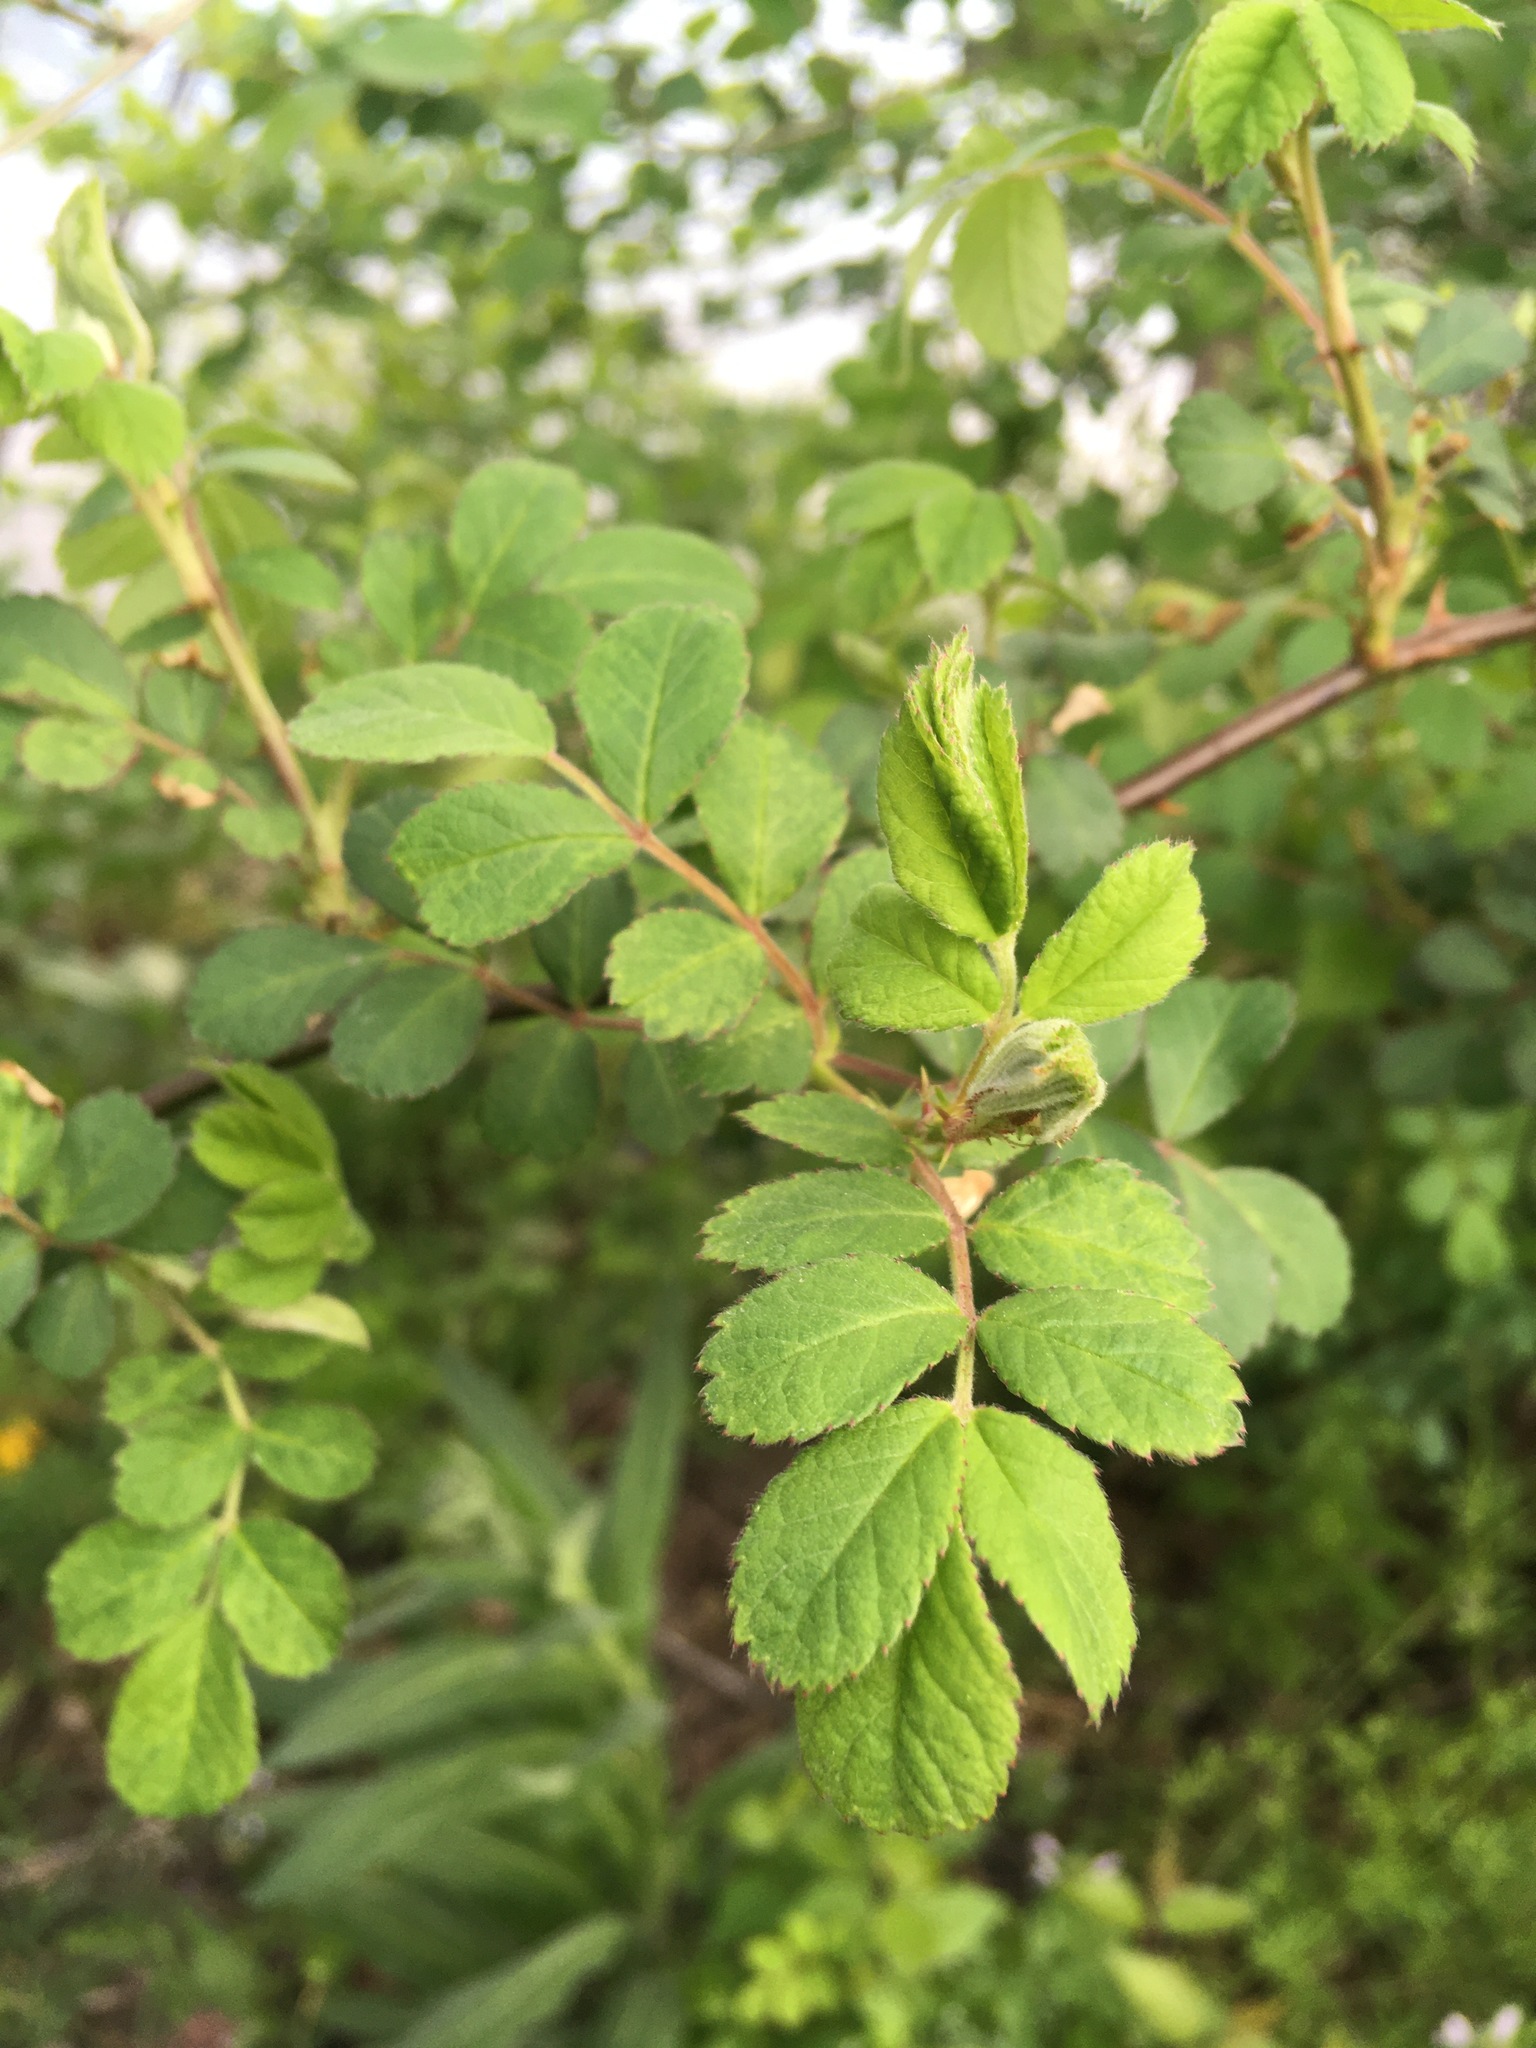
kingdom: Plantae
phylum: Tracheophyta
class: Magnoliopsida
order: Rosales
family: Rosaceae
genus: Rosa
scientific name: Rosa multiflora
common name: Multiflora rose
